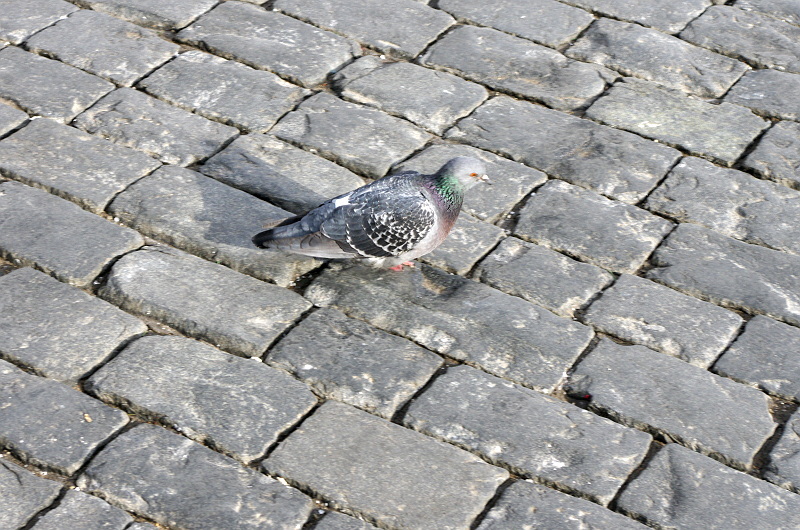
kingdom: Animalia
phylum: Chordata
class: Aves
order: Columbiformes
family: Columbidae
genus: Columba
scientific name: Columba livia
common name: Rock pigeon
